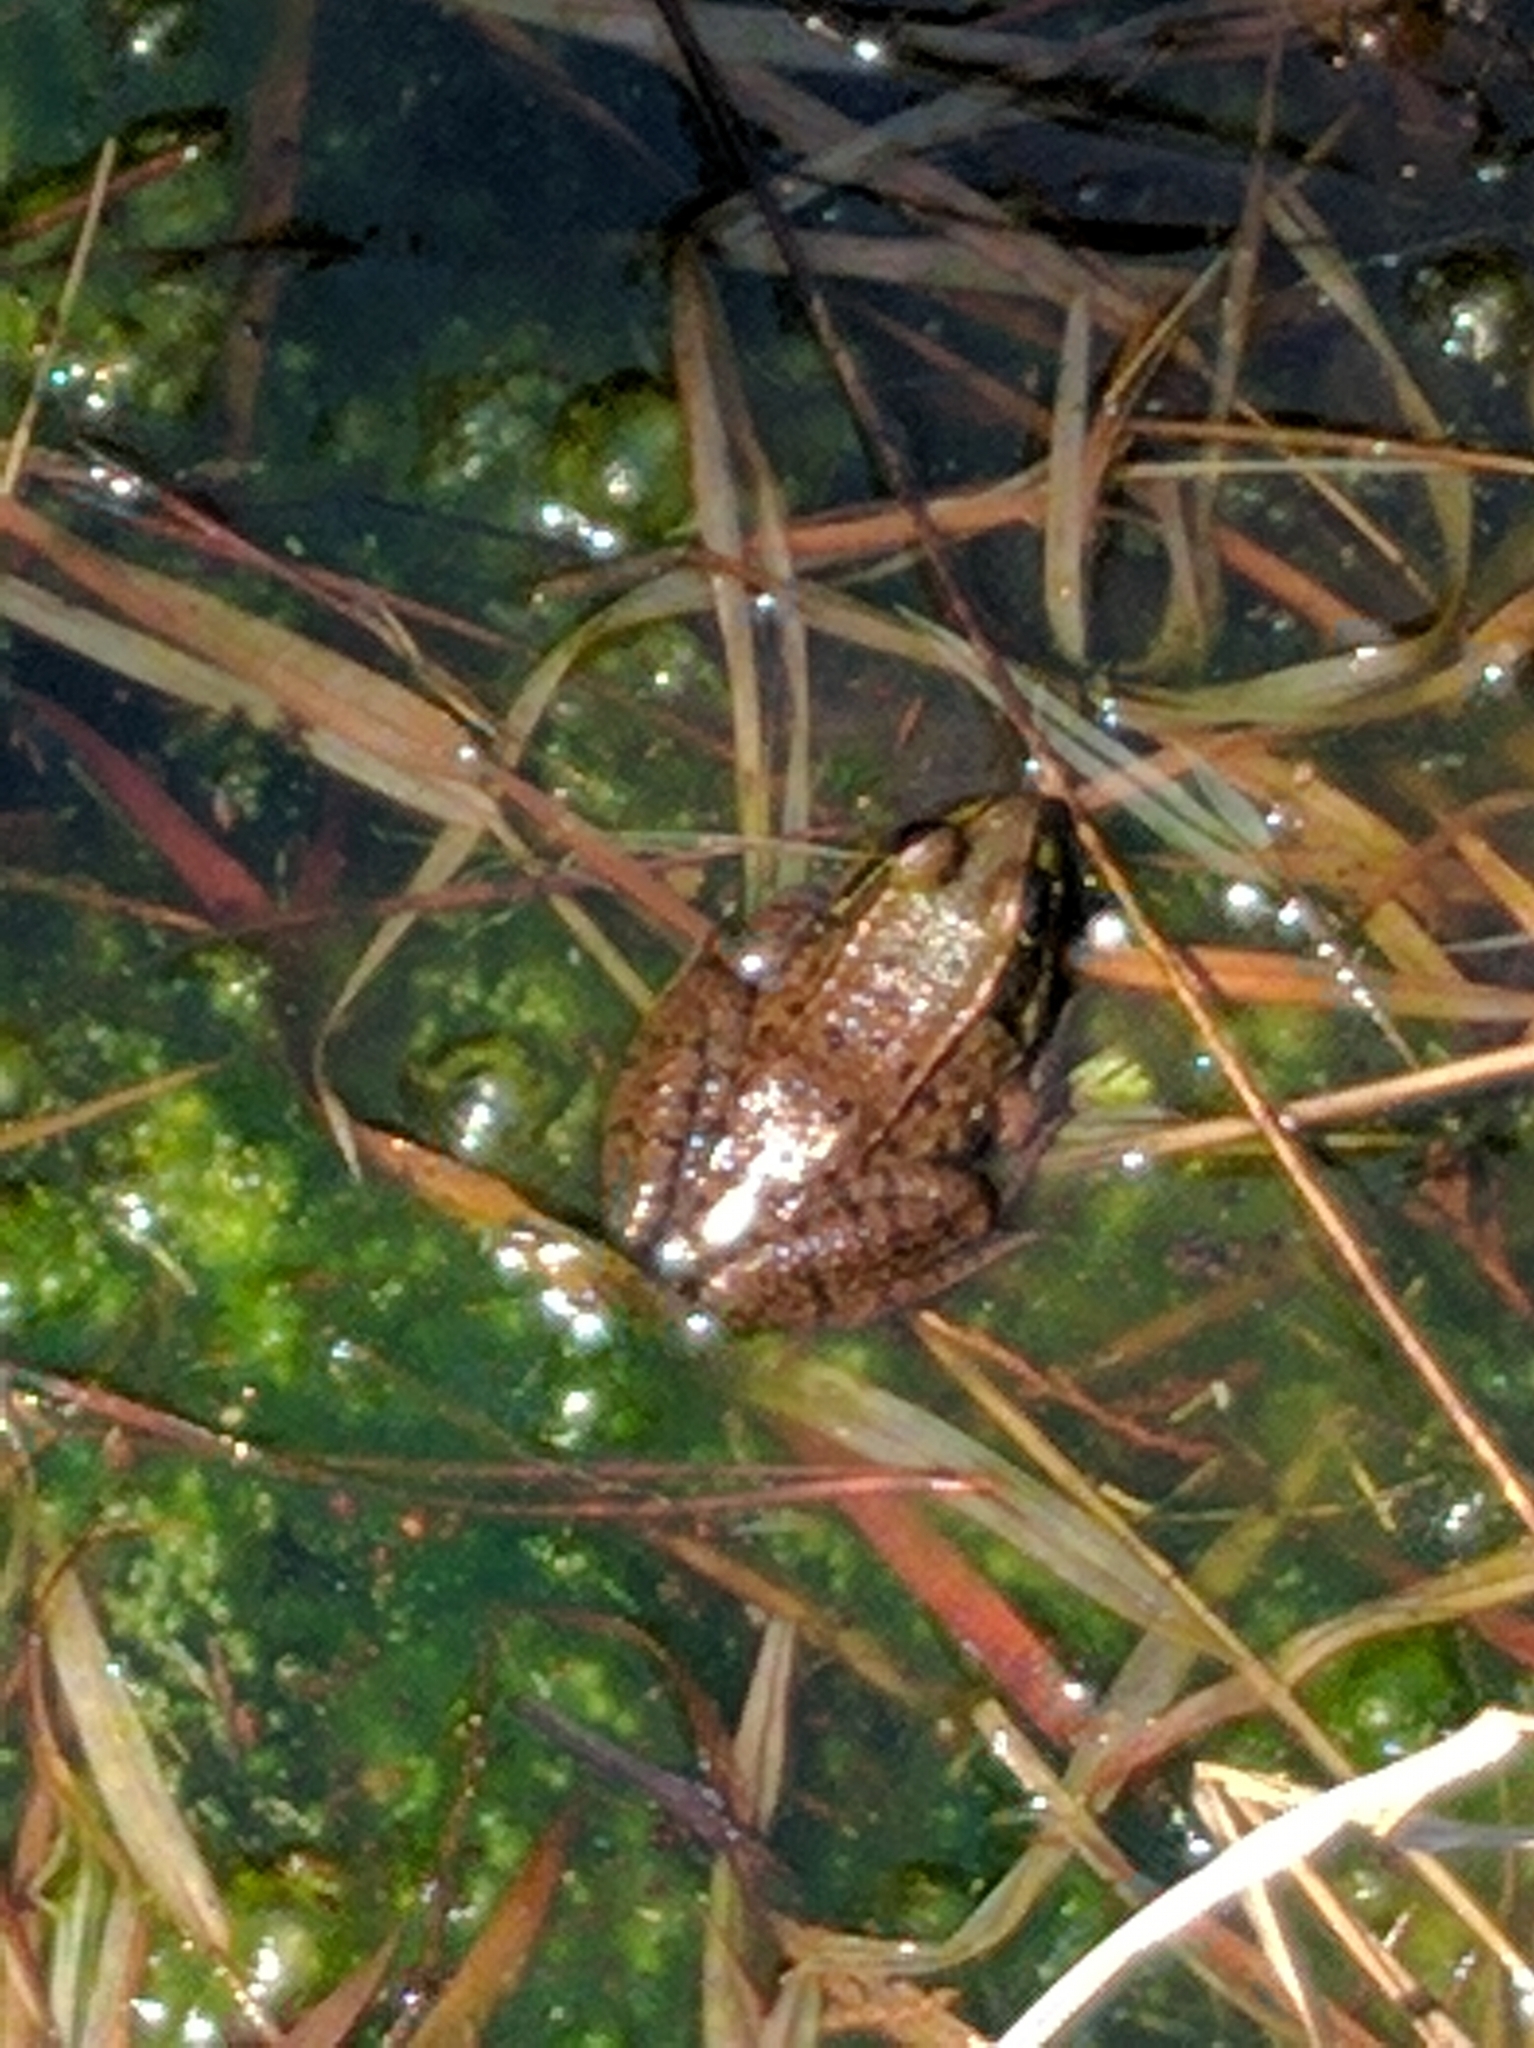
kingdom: Animalia
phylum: Chordata
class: Amphibia
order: Anura
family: Ranidae
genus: Lithobates
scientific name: Lithobates clamitans
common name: Green frog
